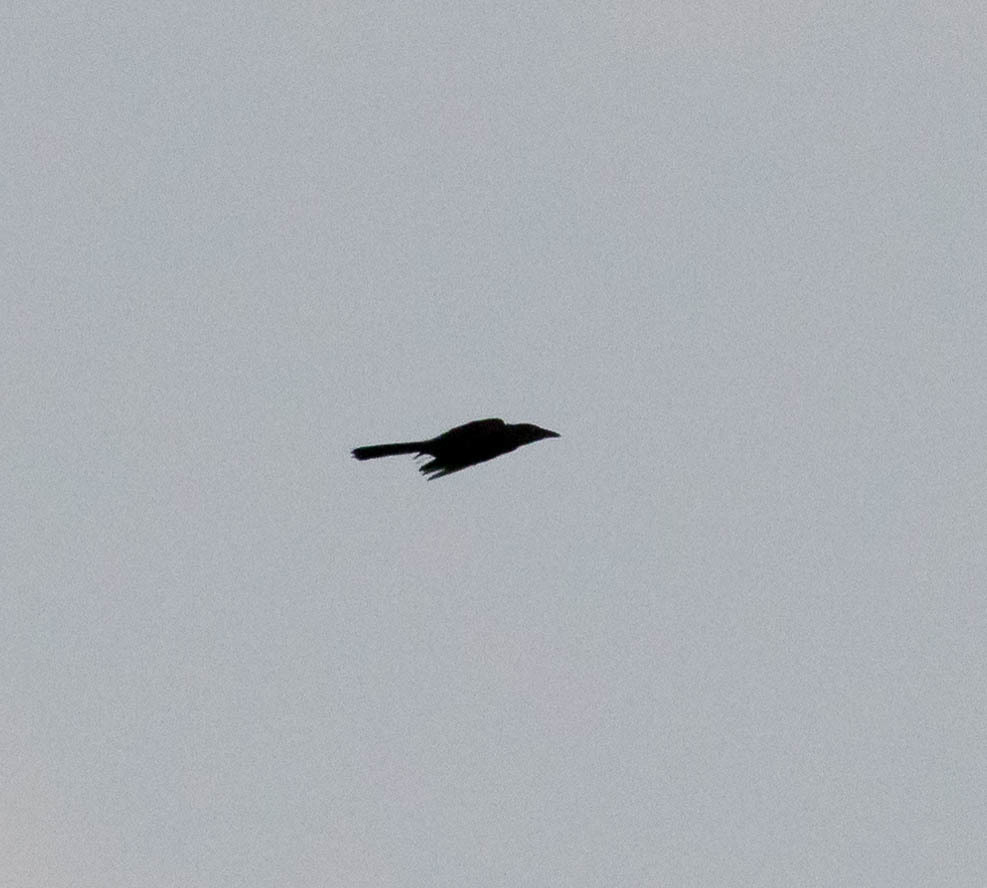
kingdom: Animalia
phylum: Chordata
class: Aves
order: Passeriformes
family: Icteridae
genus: Quiscalus
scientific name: Quiscalus quiscula
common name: Common grackle
